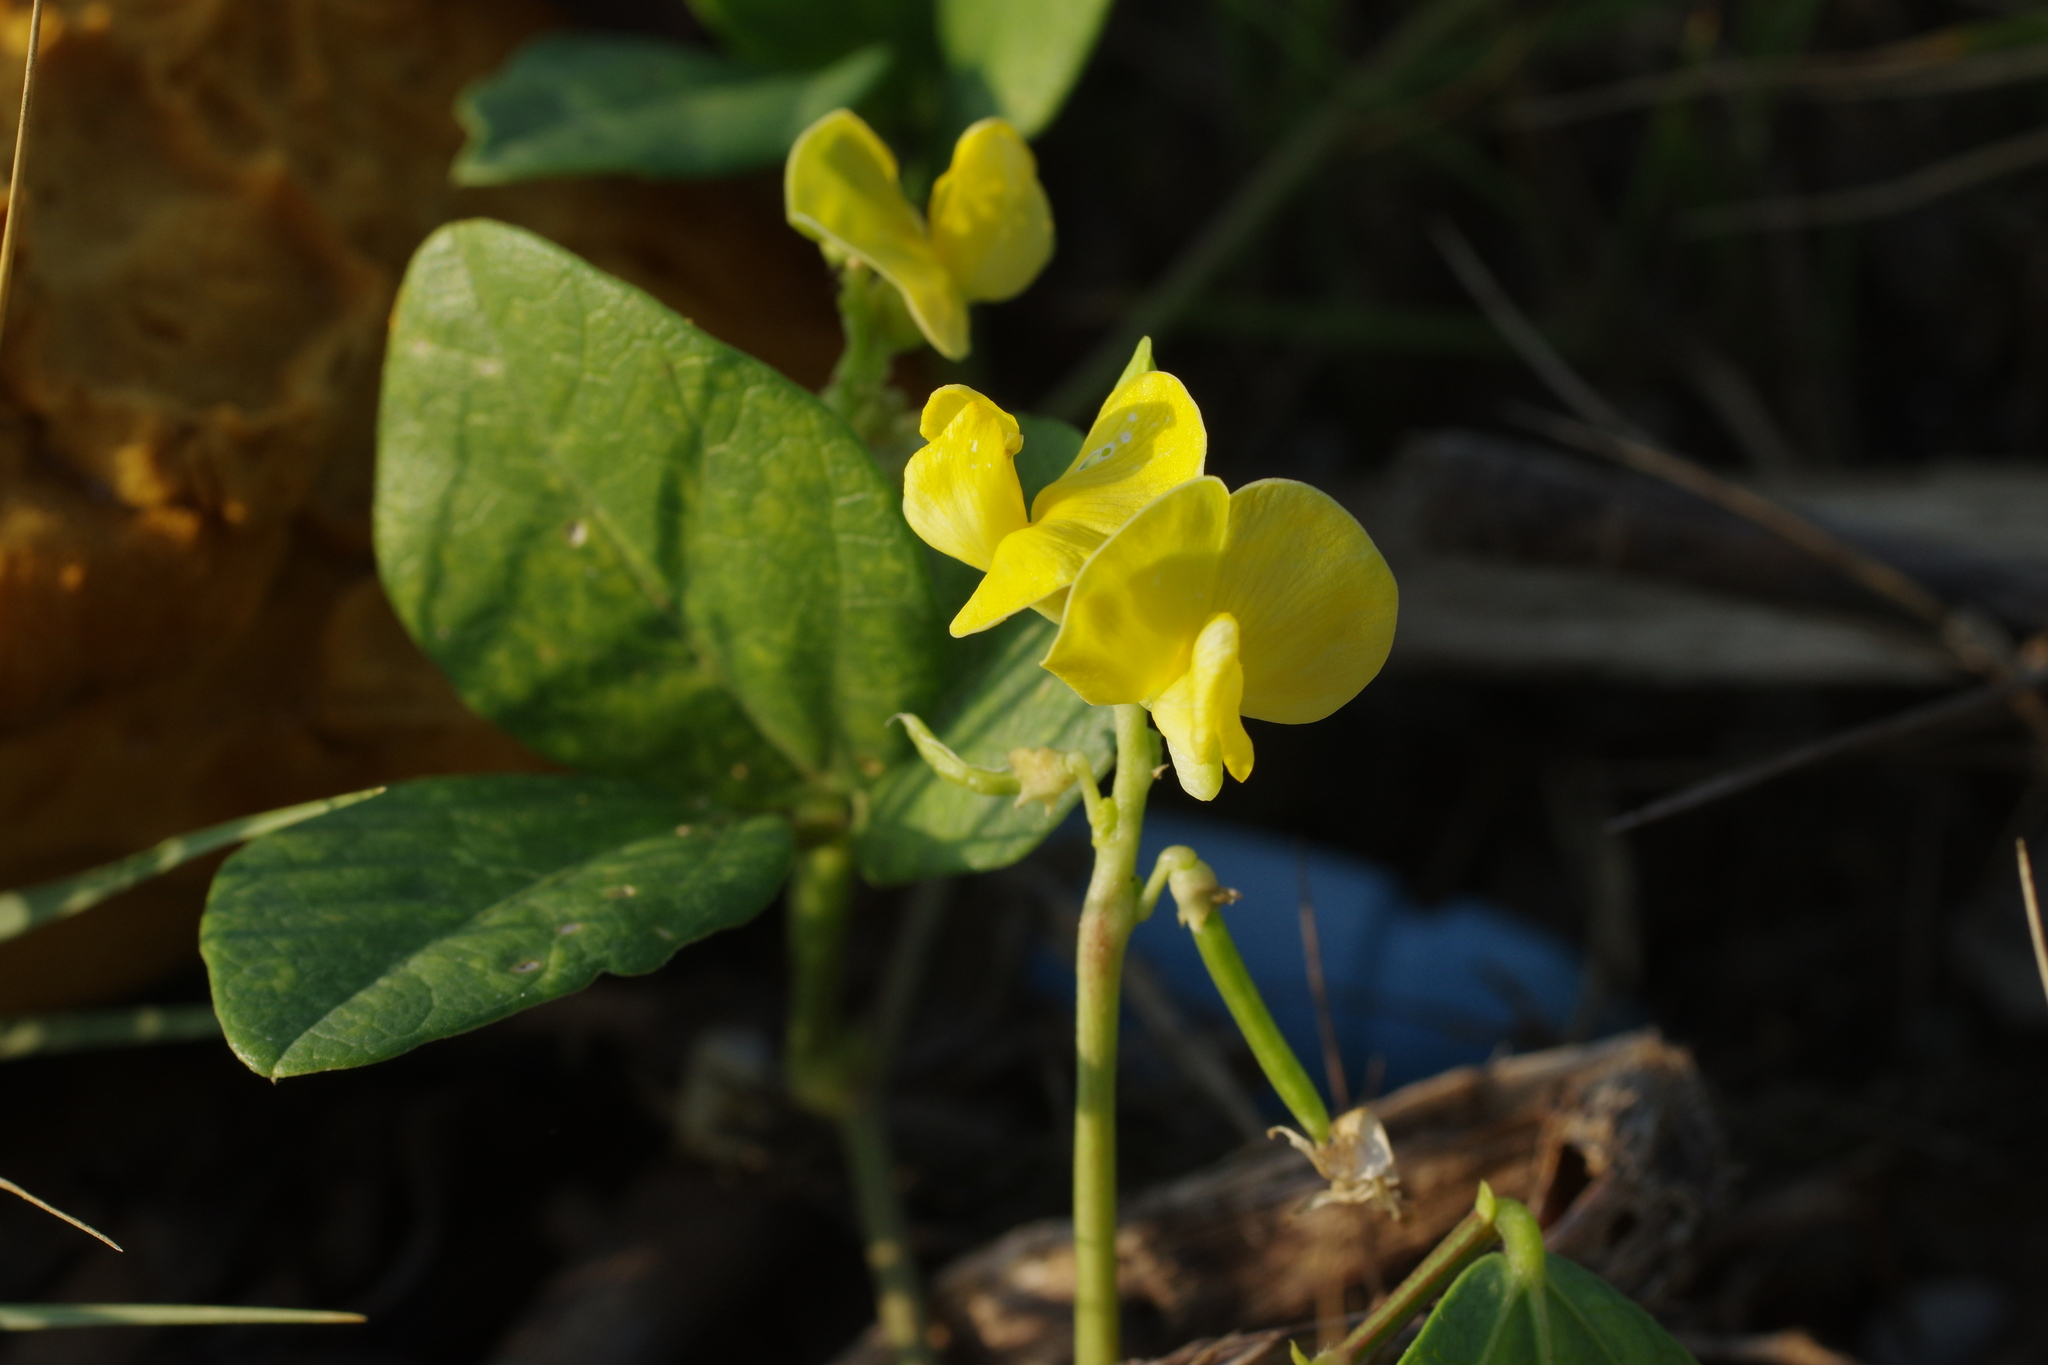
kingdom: Plantae
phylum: Tracheophyta
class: Magnoliopsida
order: Fabales
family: Fabaceae
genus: Vigna
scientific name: Vigna marina
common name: Dune-bean
